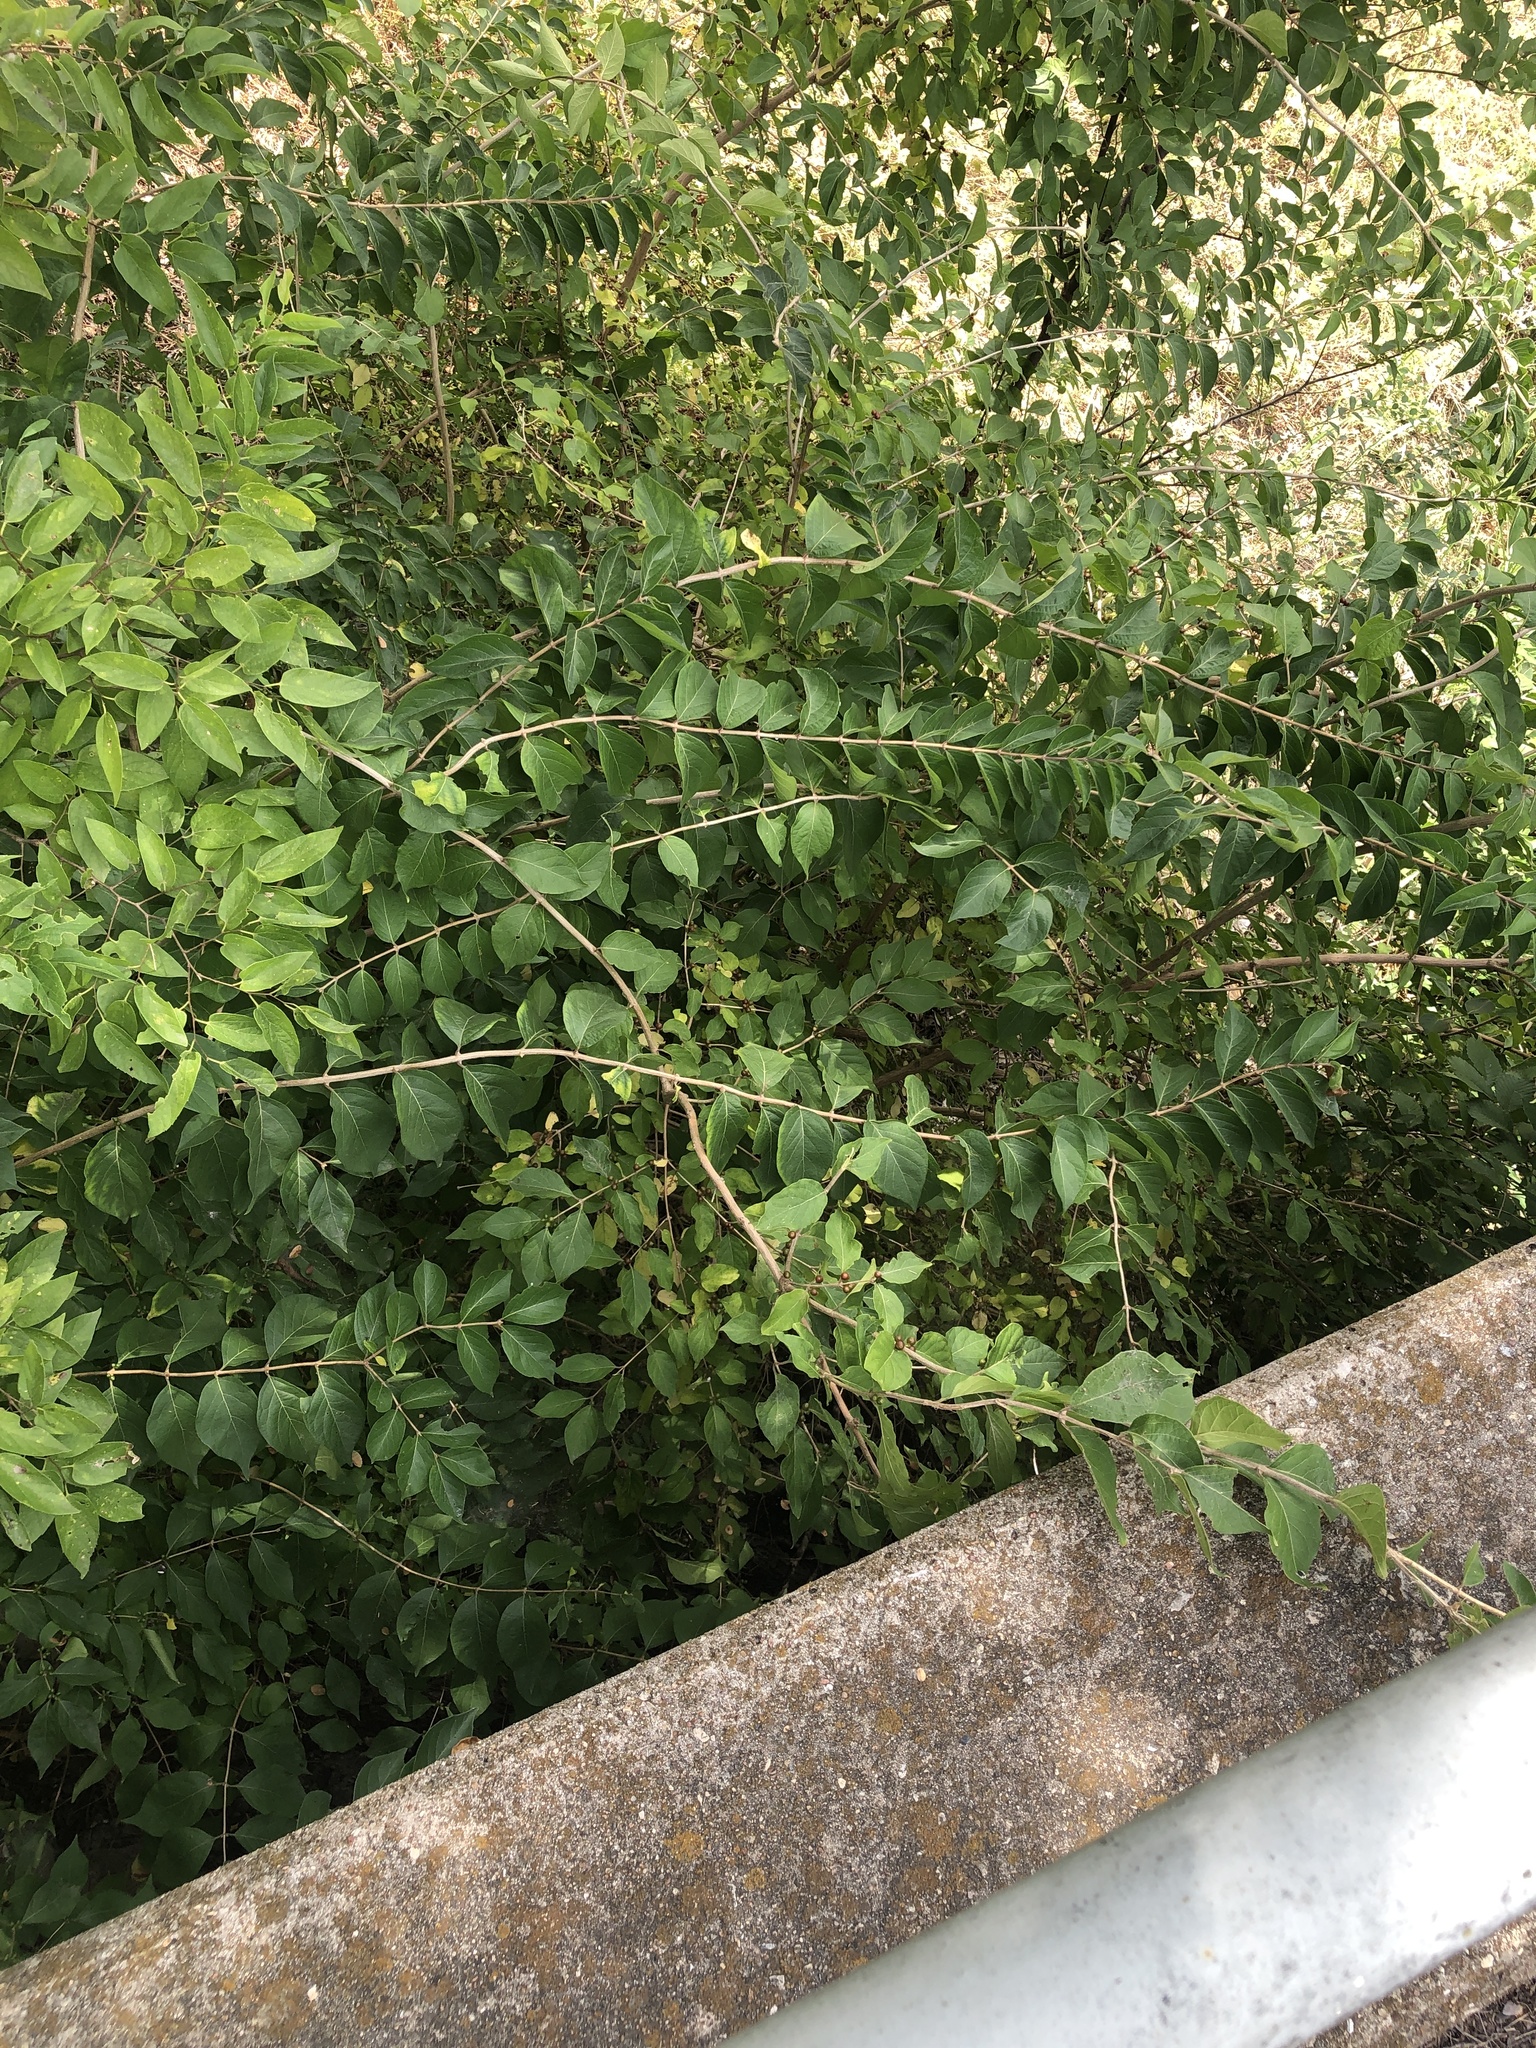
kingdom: Plantae
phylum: Tracheophyta
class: Magnoliopsida
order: Dipsacales
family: Caprifoliaceae
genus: Lonicera
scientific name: Lonicera maackii
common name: Amur honeysuckle
